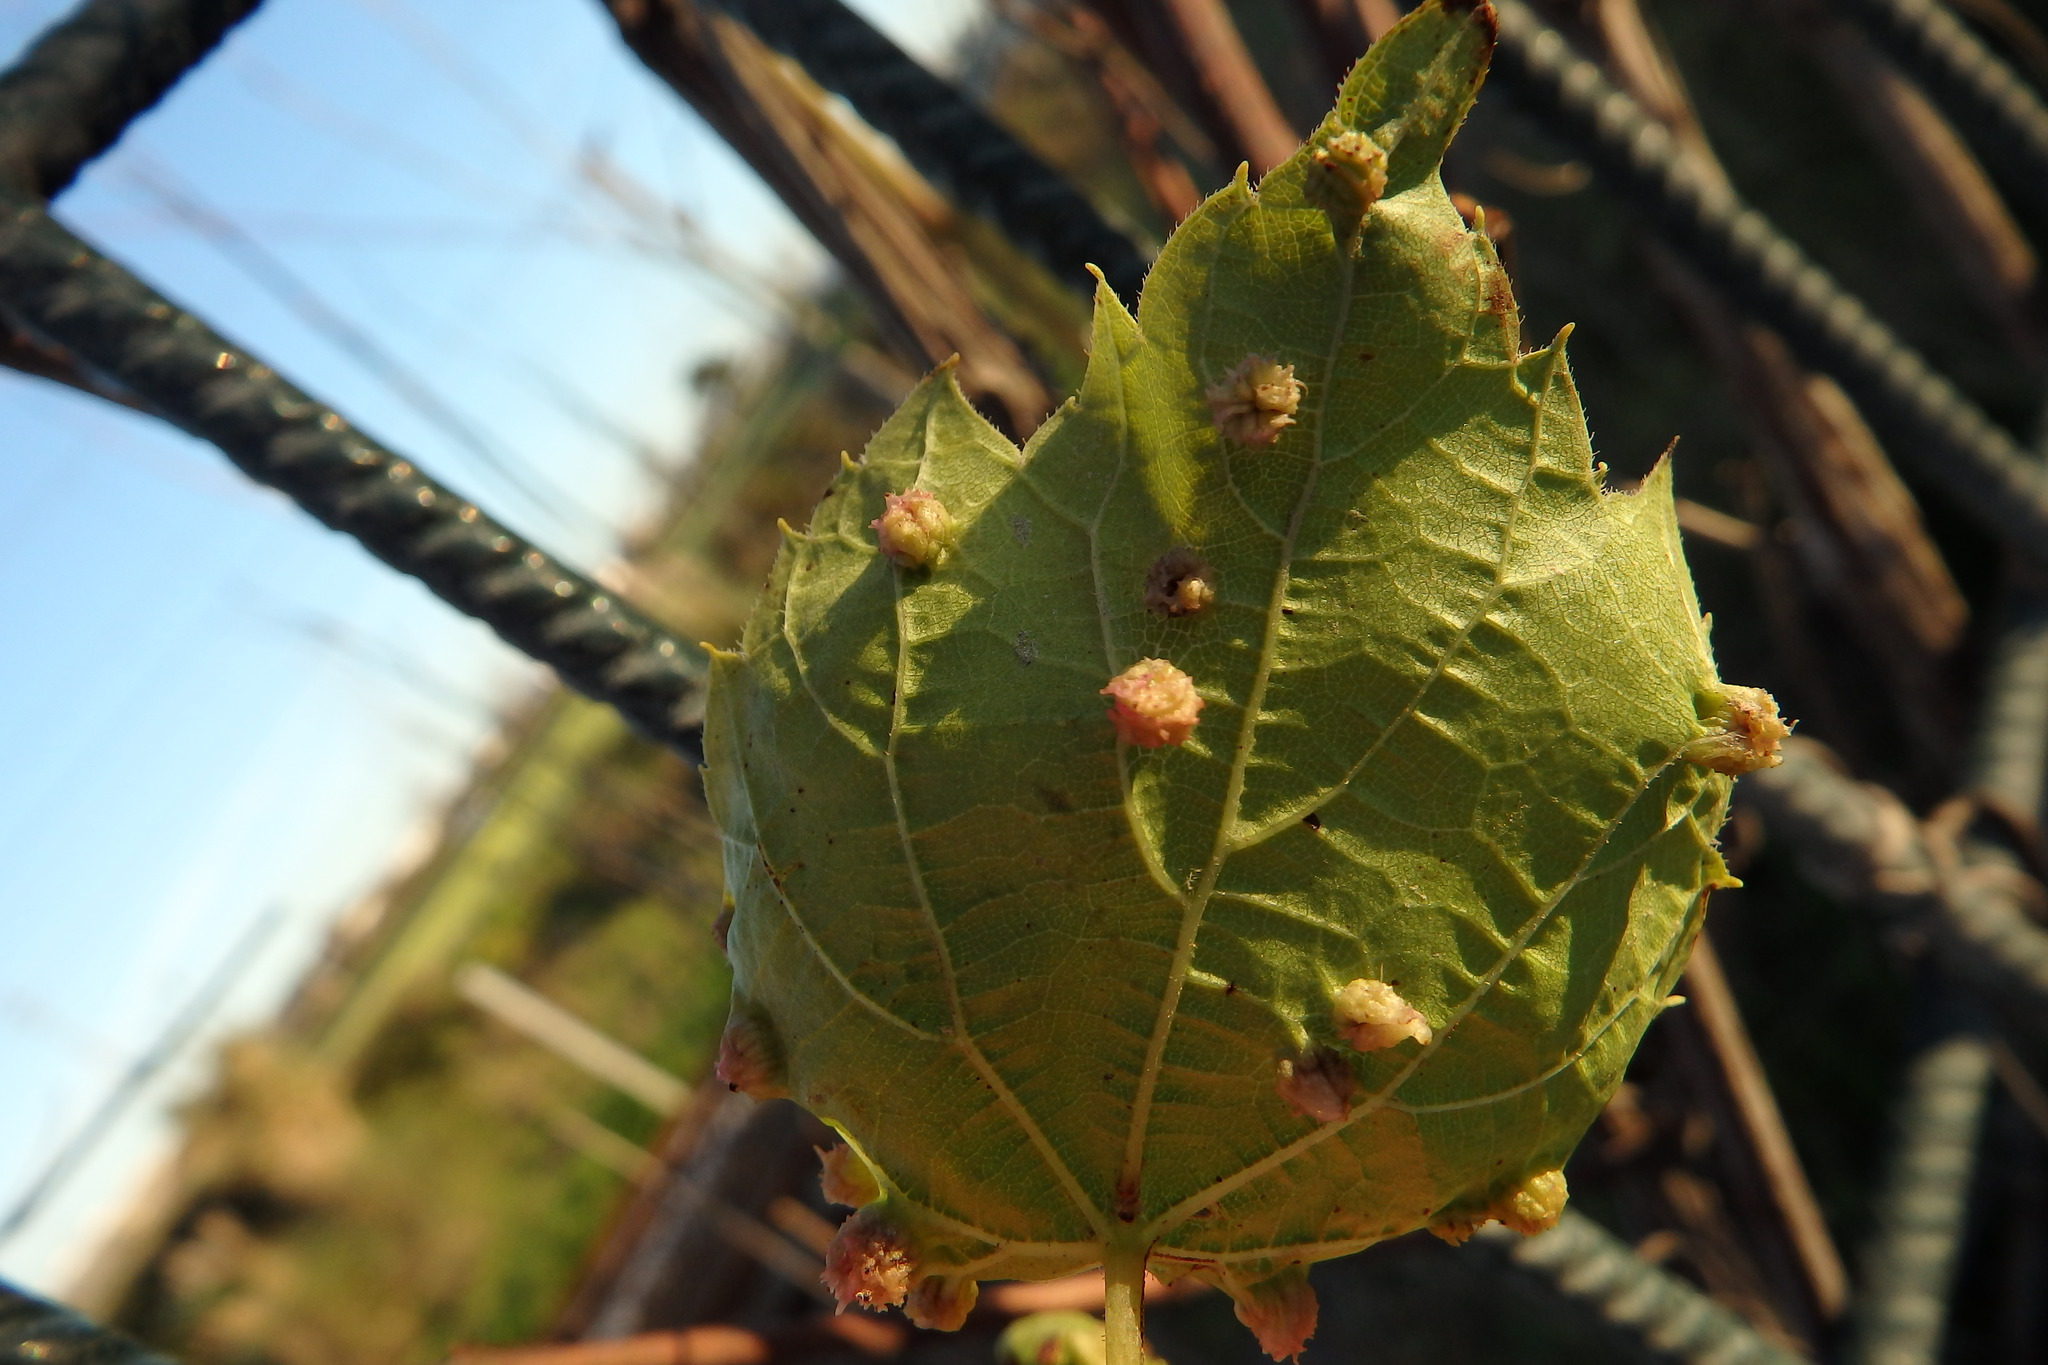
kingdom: Animalia
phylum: Arthropoda
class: Insecta
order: Hemiptera
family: Phylloxeridae
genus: Daktulosphaira
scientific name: Daktulosphaira vitifoliae
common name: Grape phylloxera
